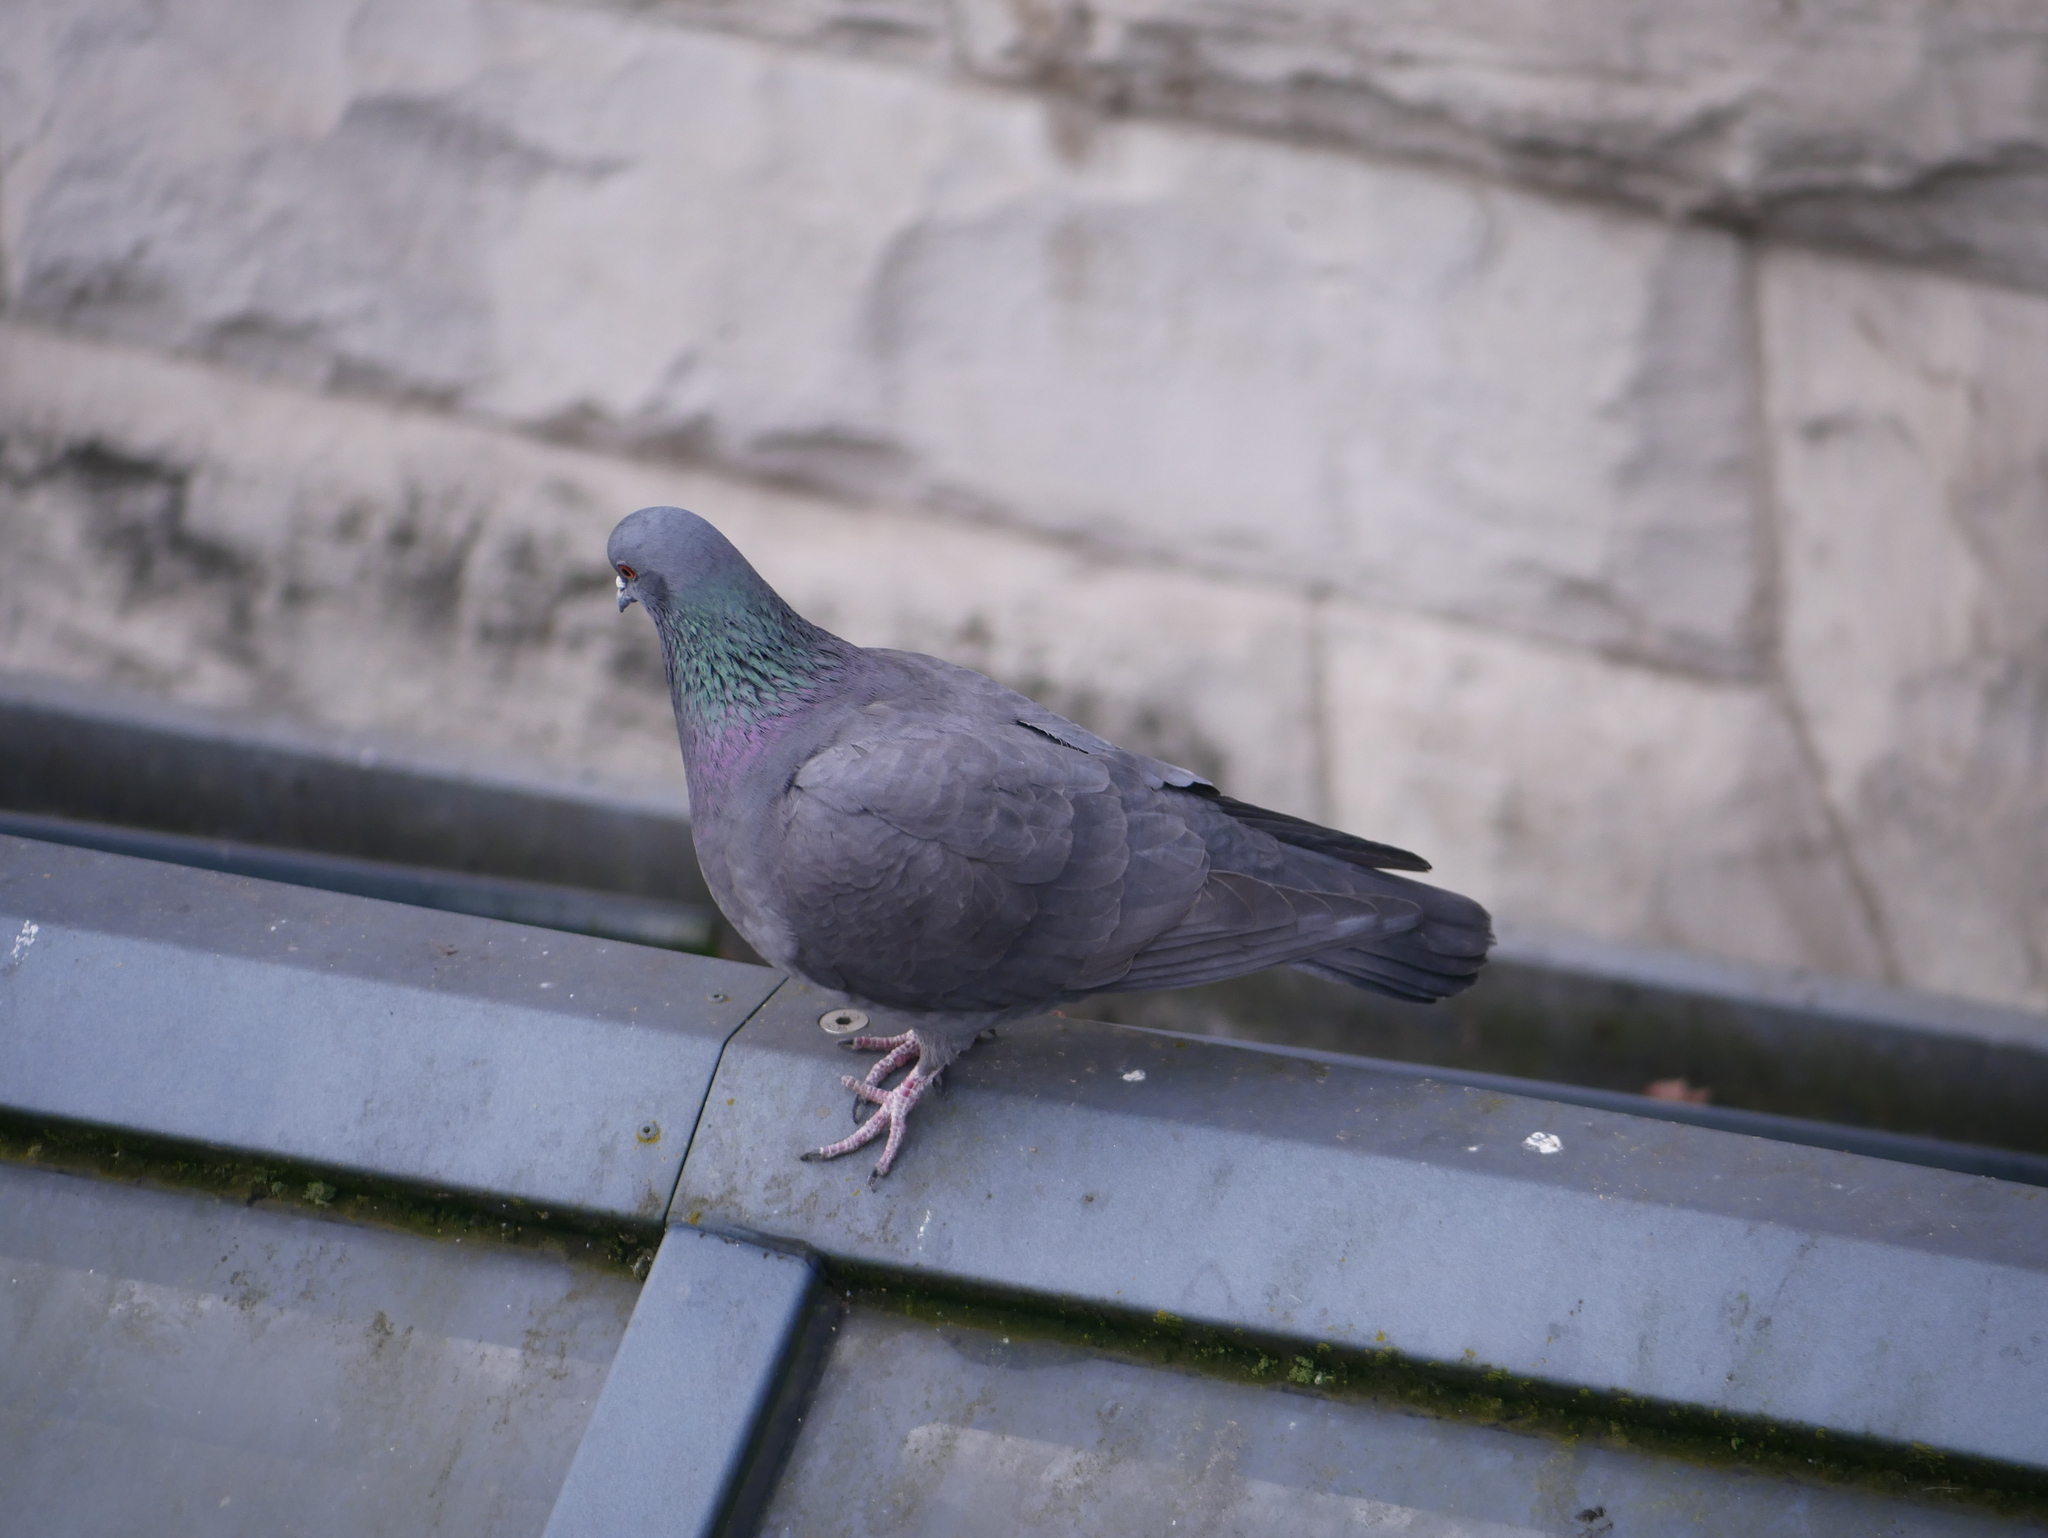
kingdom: Animalia
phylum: Chordata
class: Aves
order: Columbiformes
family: Columbidae
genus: Columba
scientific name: Columba livia
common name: Rock pigeon
